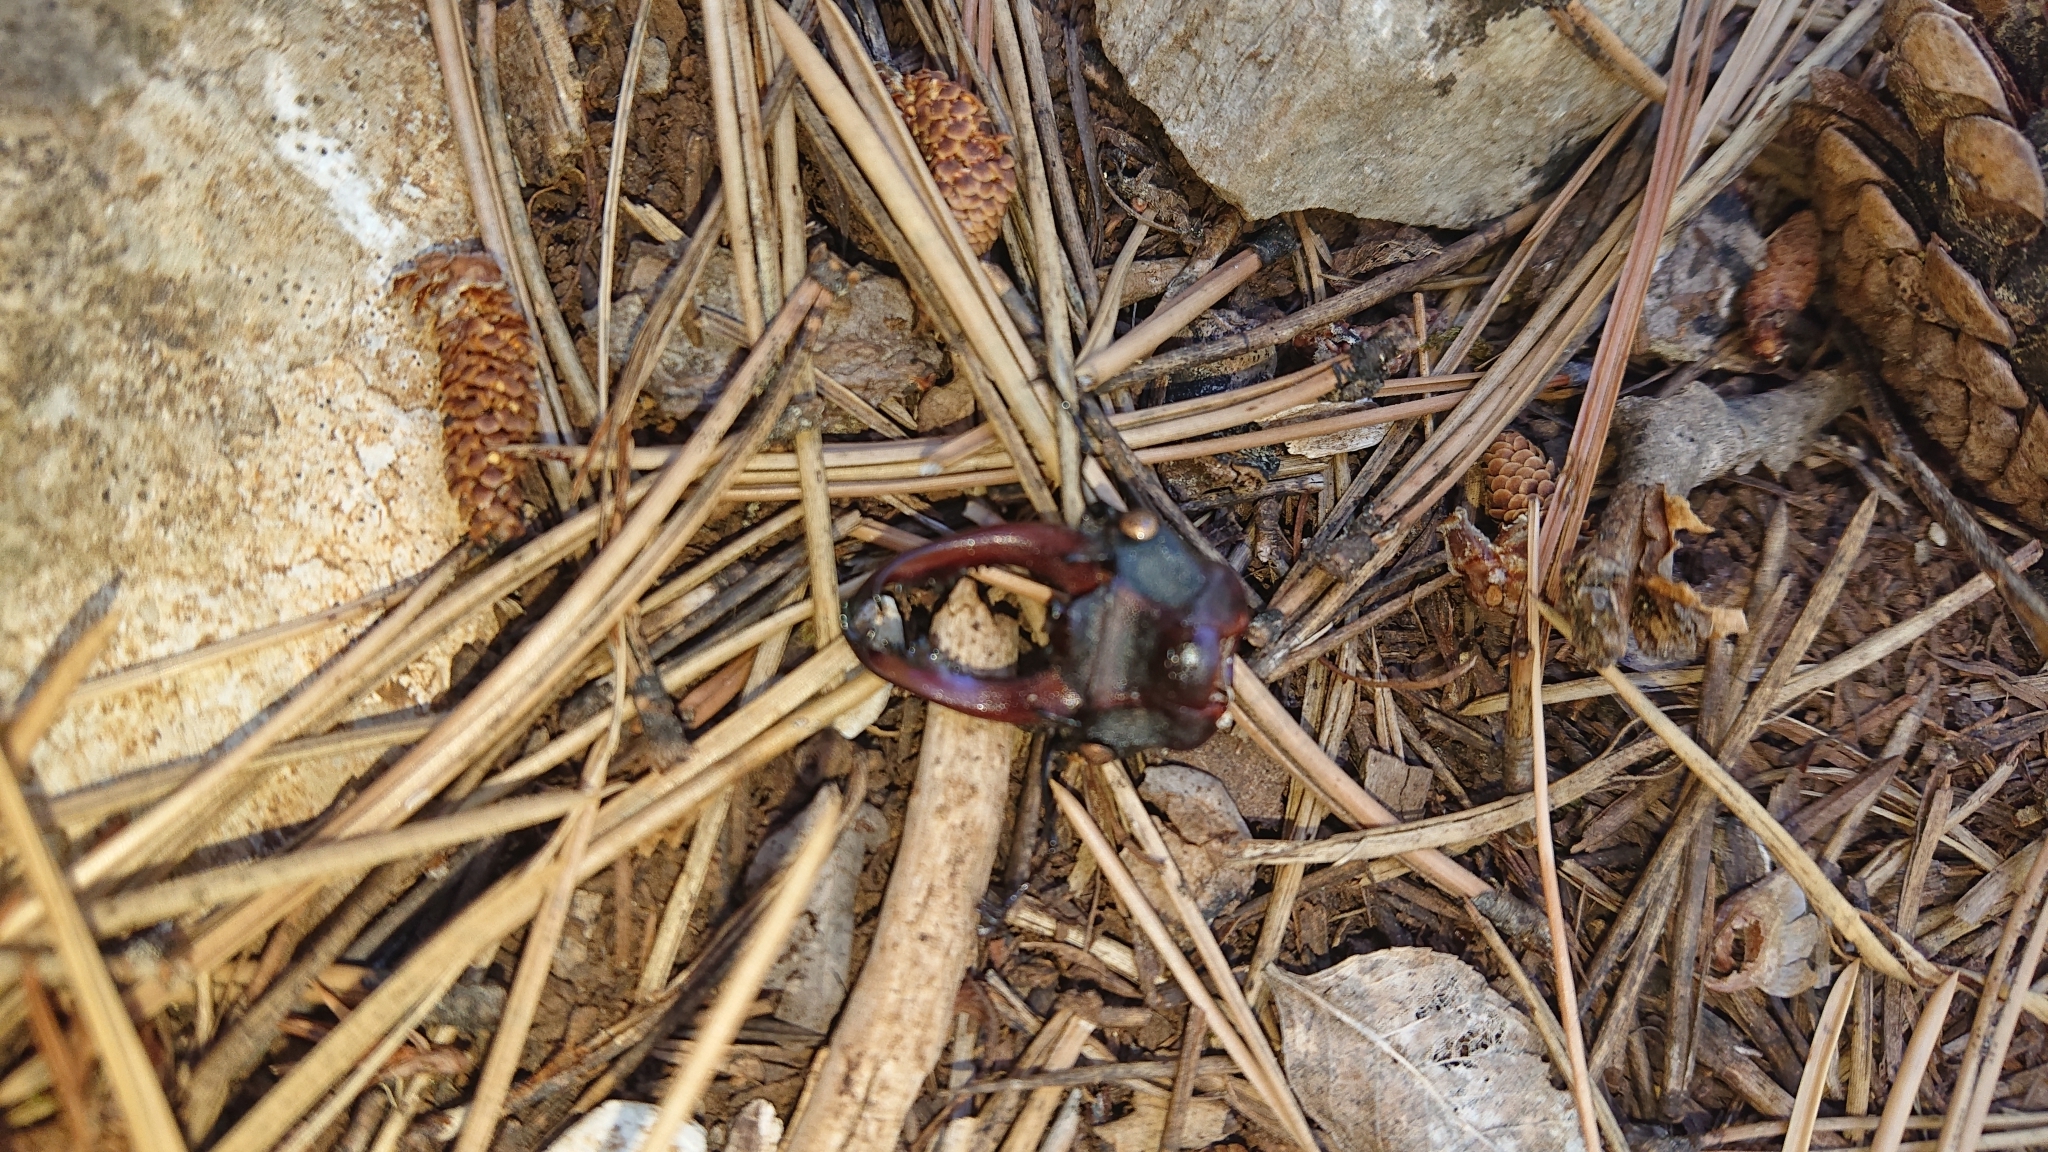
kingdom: Animalia
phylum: Arthropoda
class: Insecta
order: Coleoptera
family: Lucanidae
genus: Lucanus
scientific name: Lucanus cervus
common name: Stag beetle
